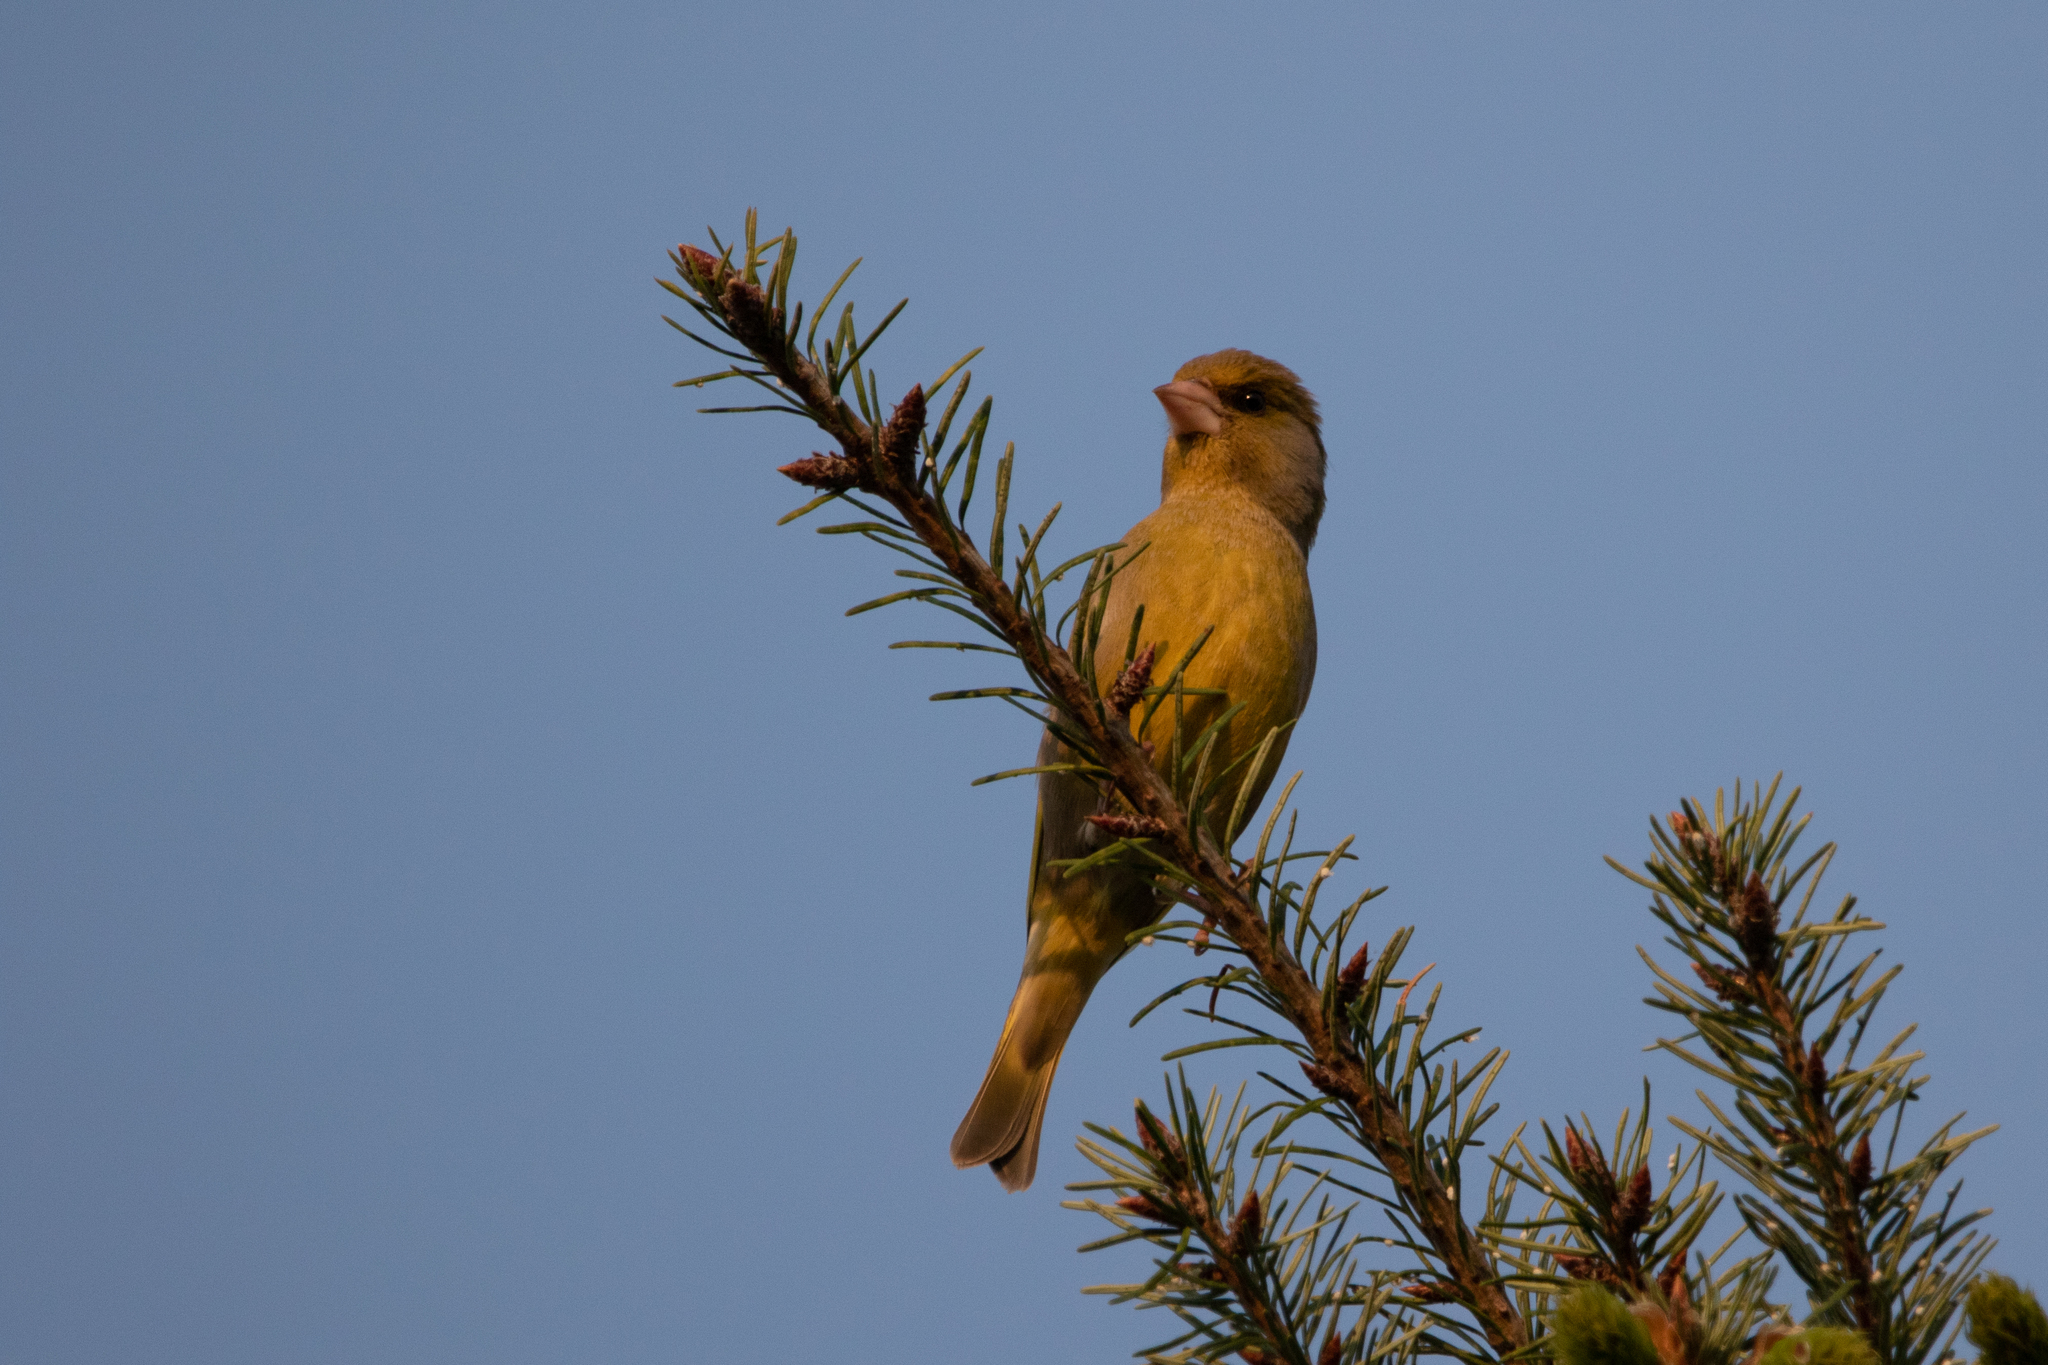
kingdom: Plantae
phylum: Tracheophyta
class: Liliopsida
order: Poales
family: Poaceae
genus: Chloris
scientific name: Chloris chloris
